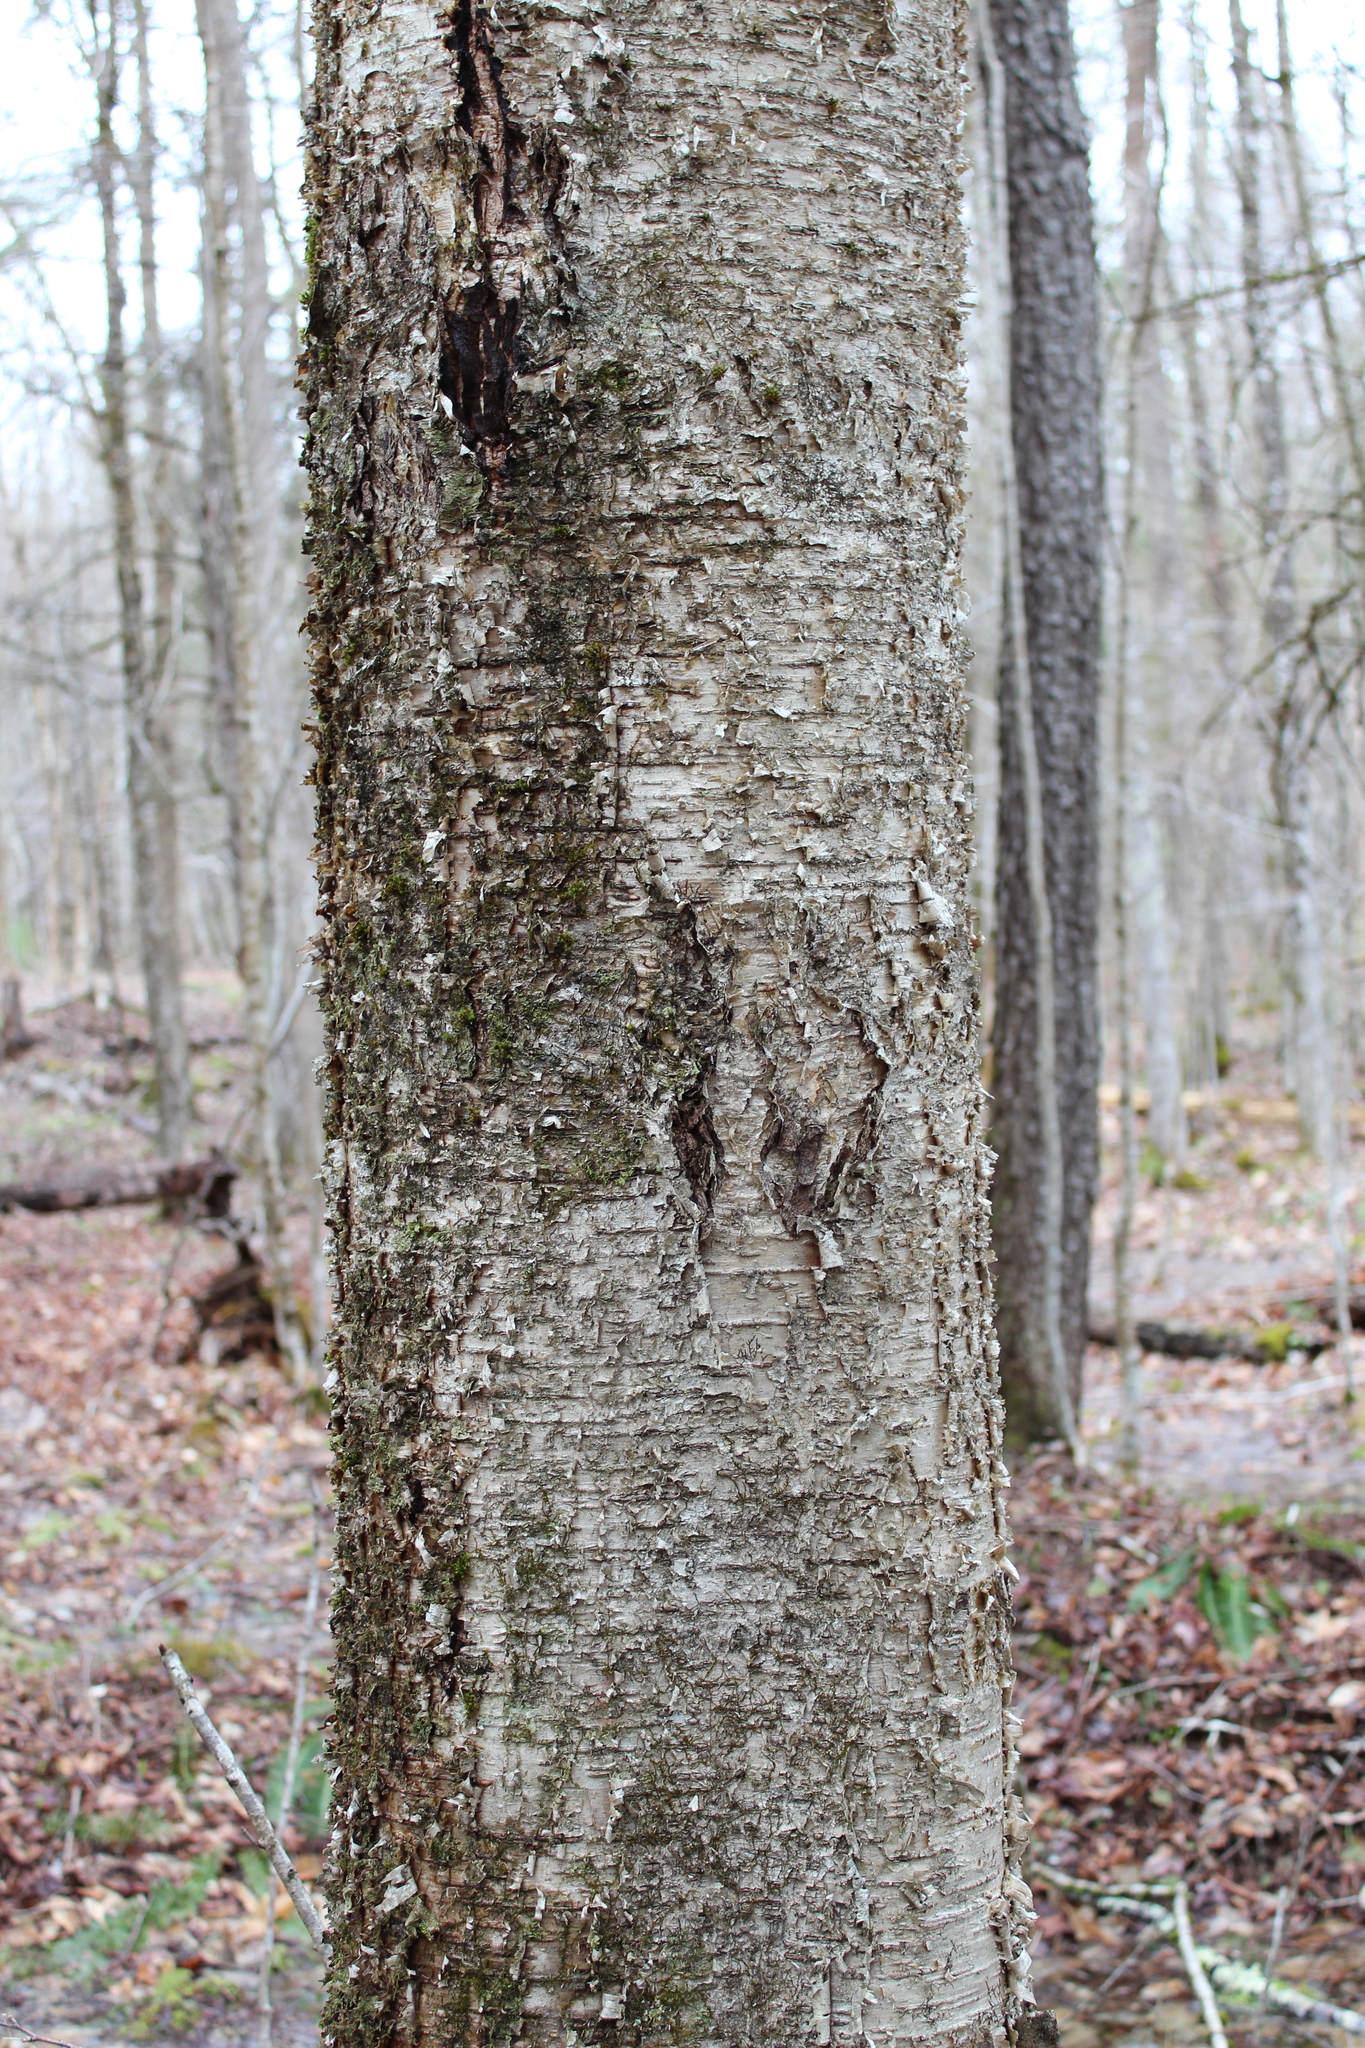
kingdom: Plantae
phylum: Tracheophyta
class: Magnoliopsida
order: Fagales
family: Betulaceae
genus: Betula
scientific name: Betula alleghaniensis
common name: Yellow birch
